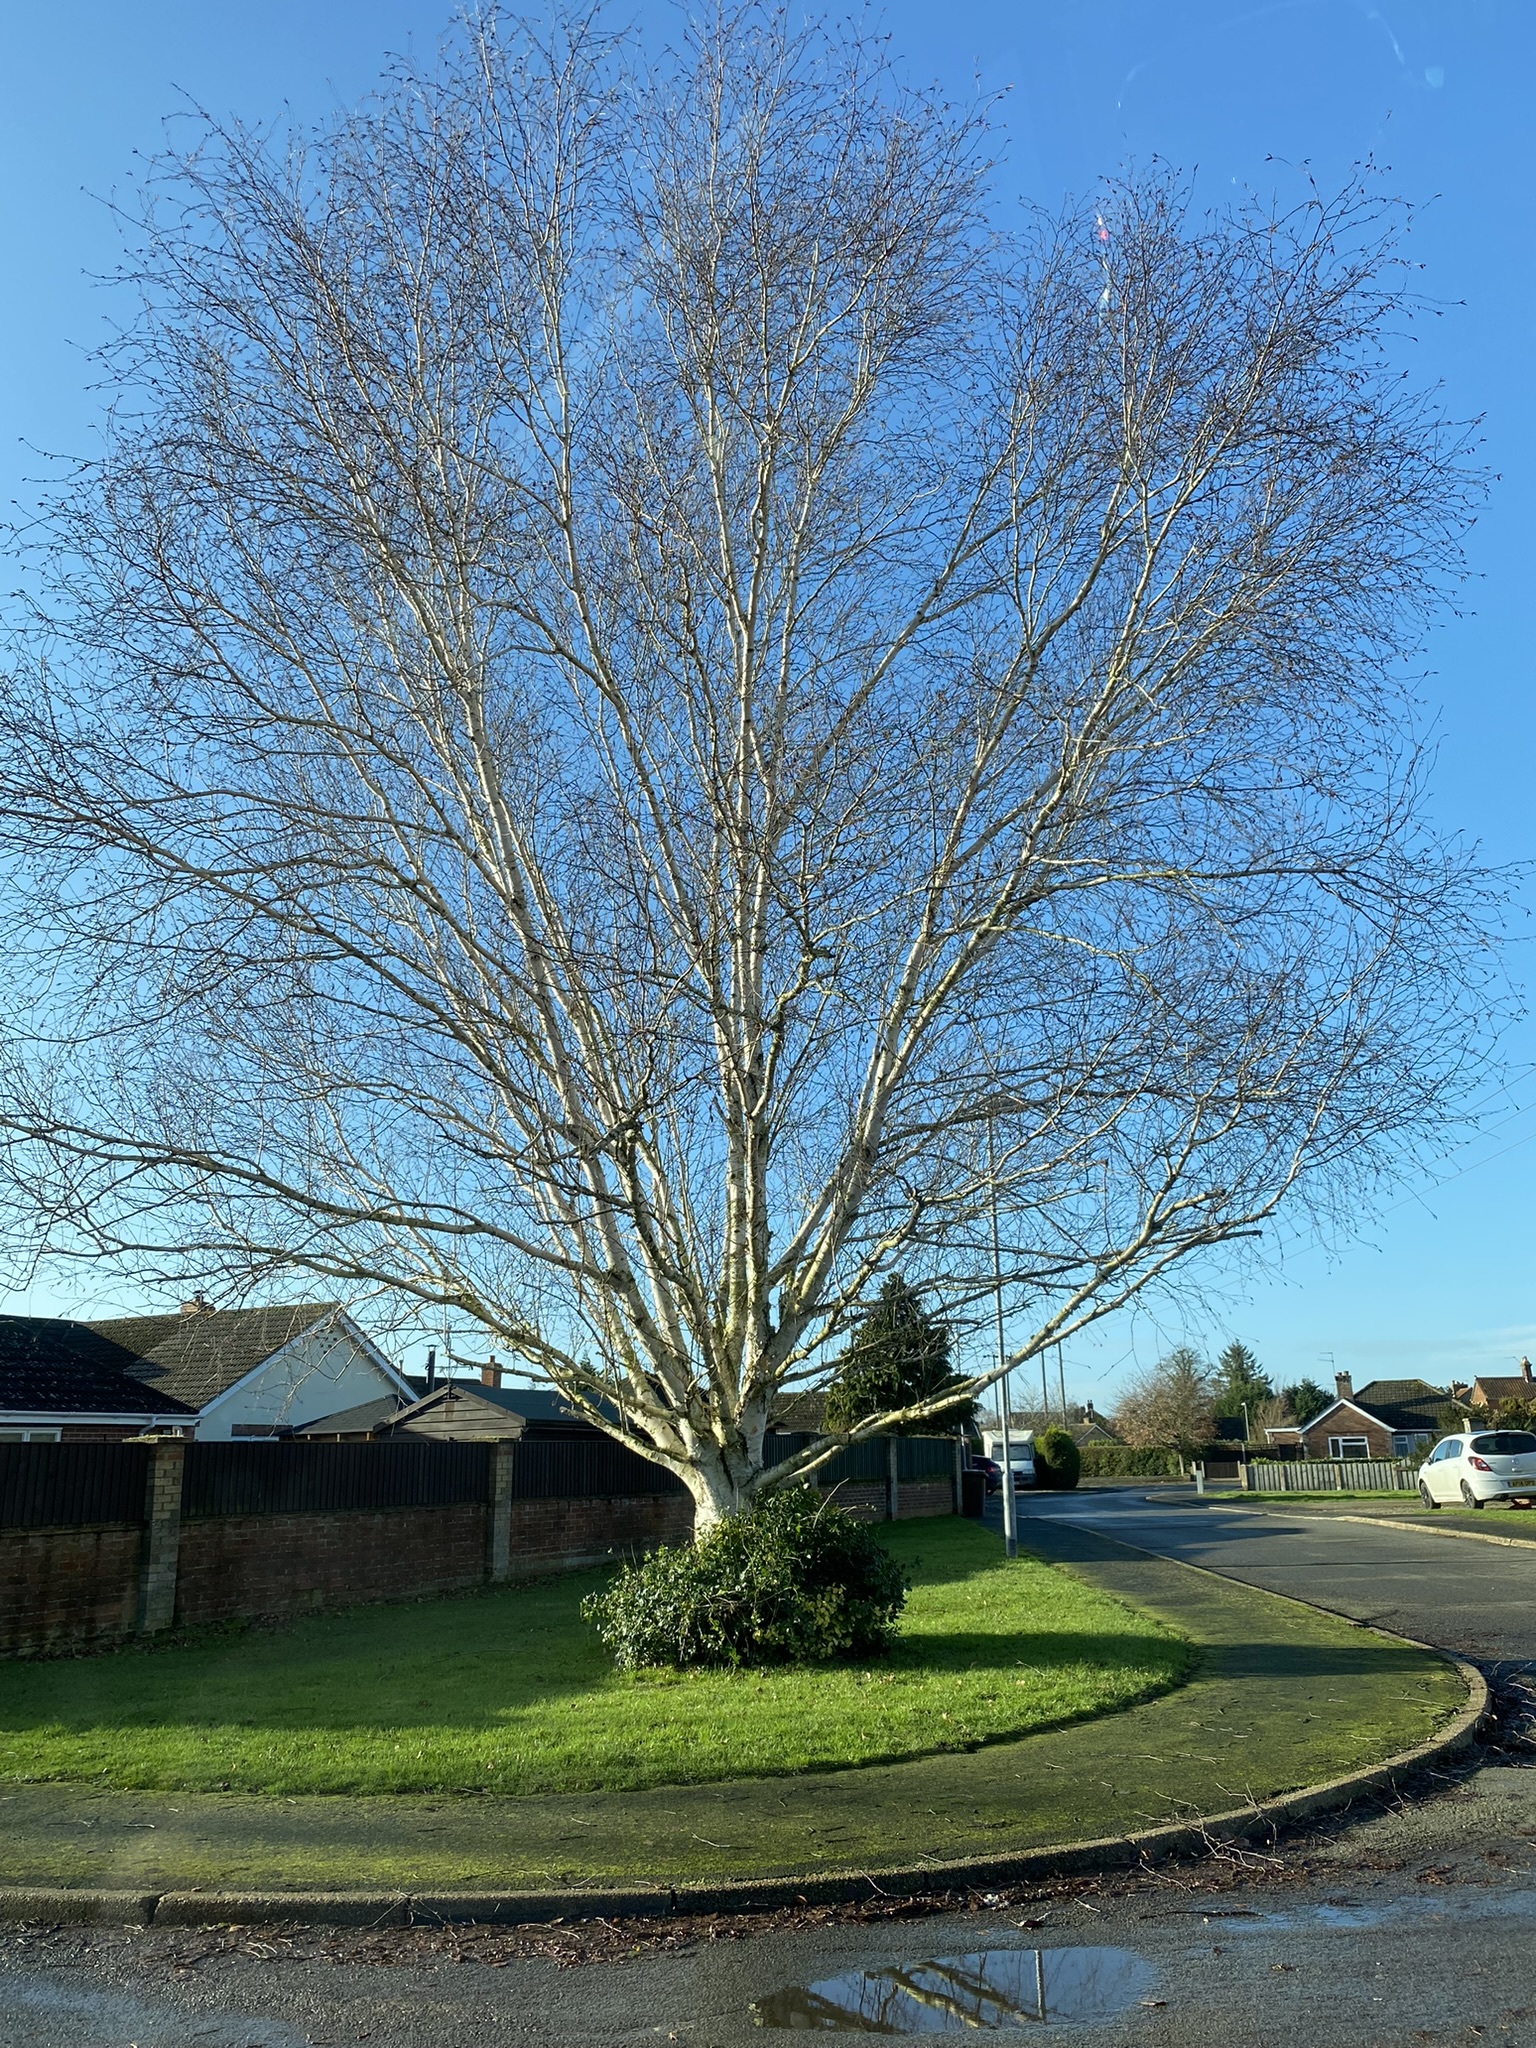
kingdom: Plantae
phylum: Tracheophyta
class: Magnoliopsida
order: Fagales
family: Betulaceae
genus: Betula
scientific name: Betula pendula
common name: Silver birch
